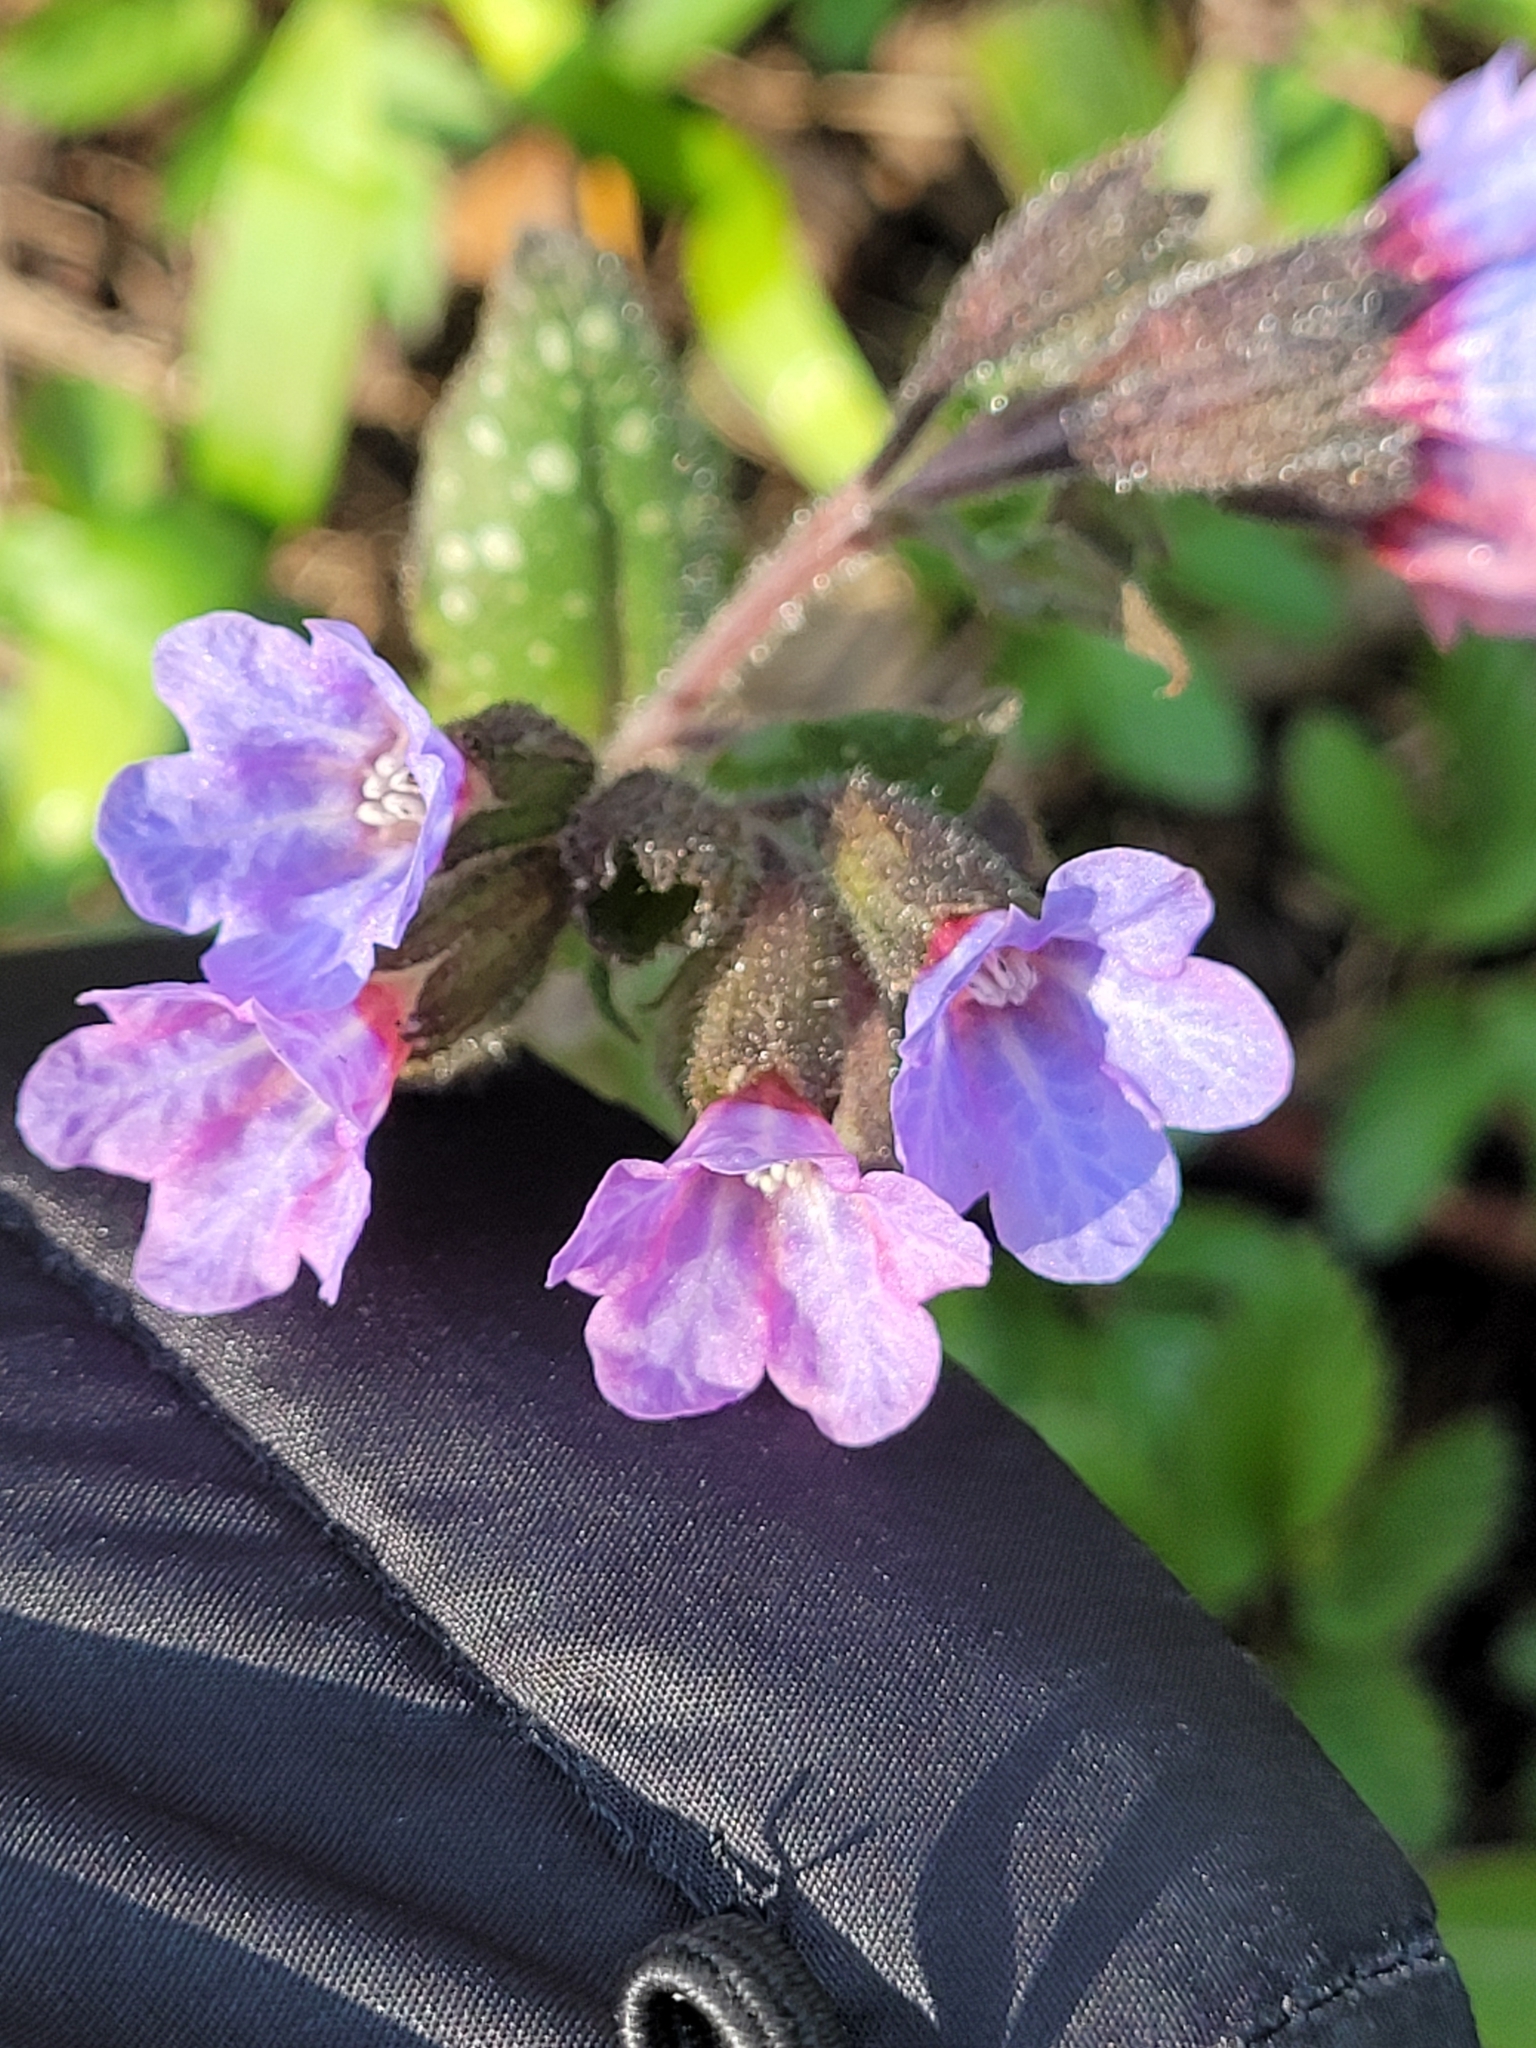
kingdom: Plantae
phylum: Tracheophyta
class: Magnoliopsida
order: Boraginales
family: Boraginaceae
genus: Pulmonaria
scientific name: Pulmonaria officinalis
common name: Lungwort
